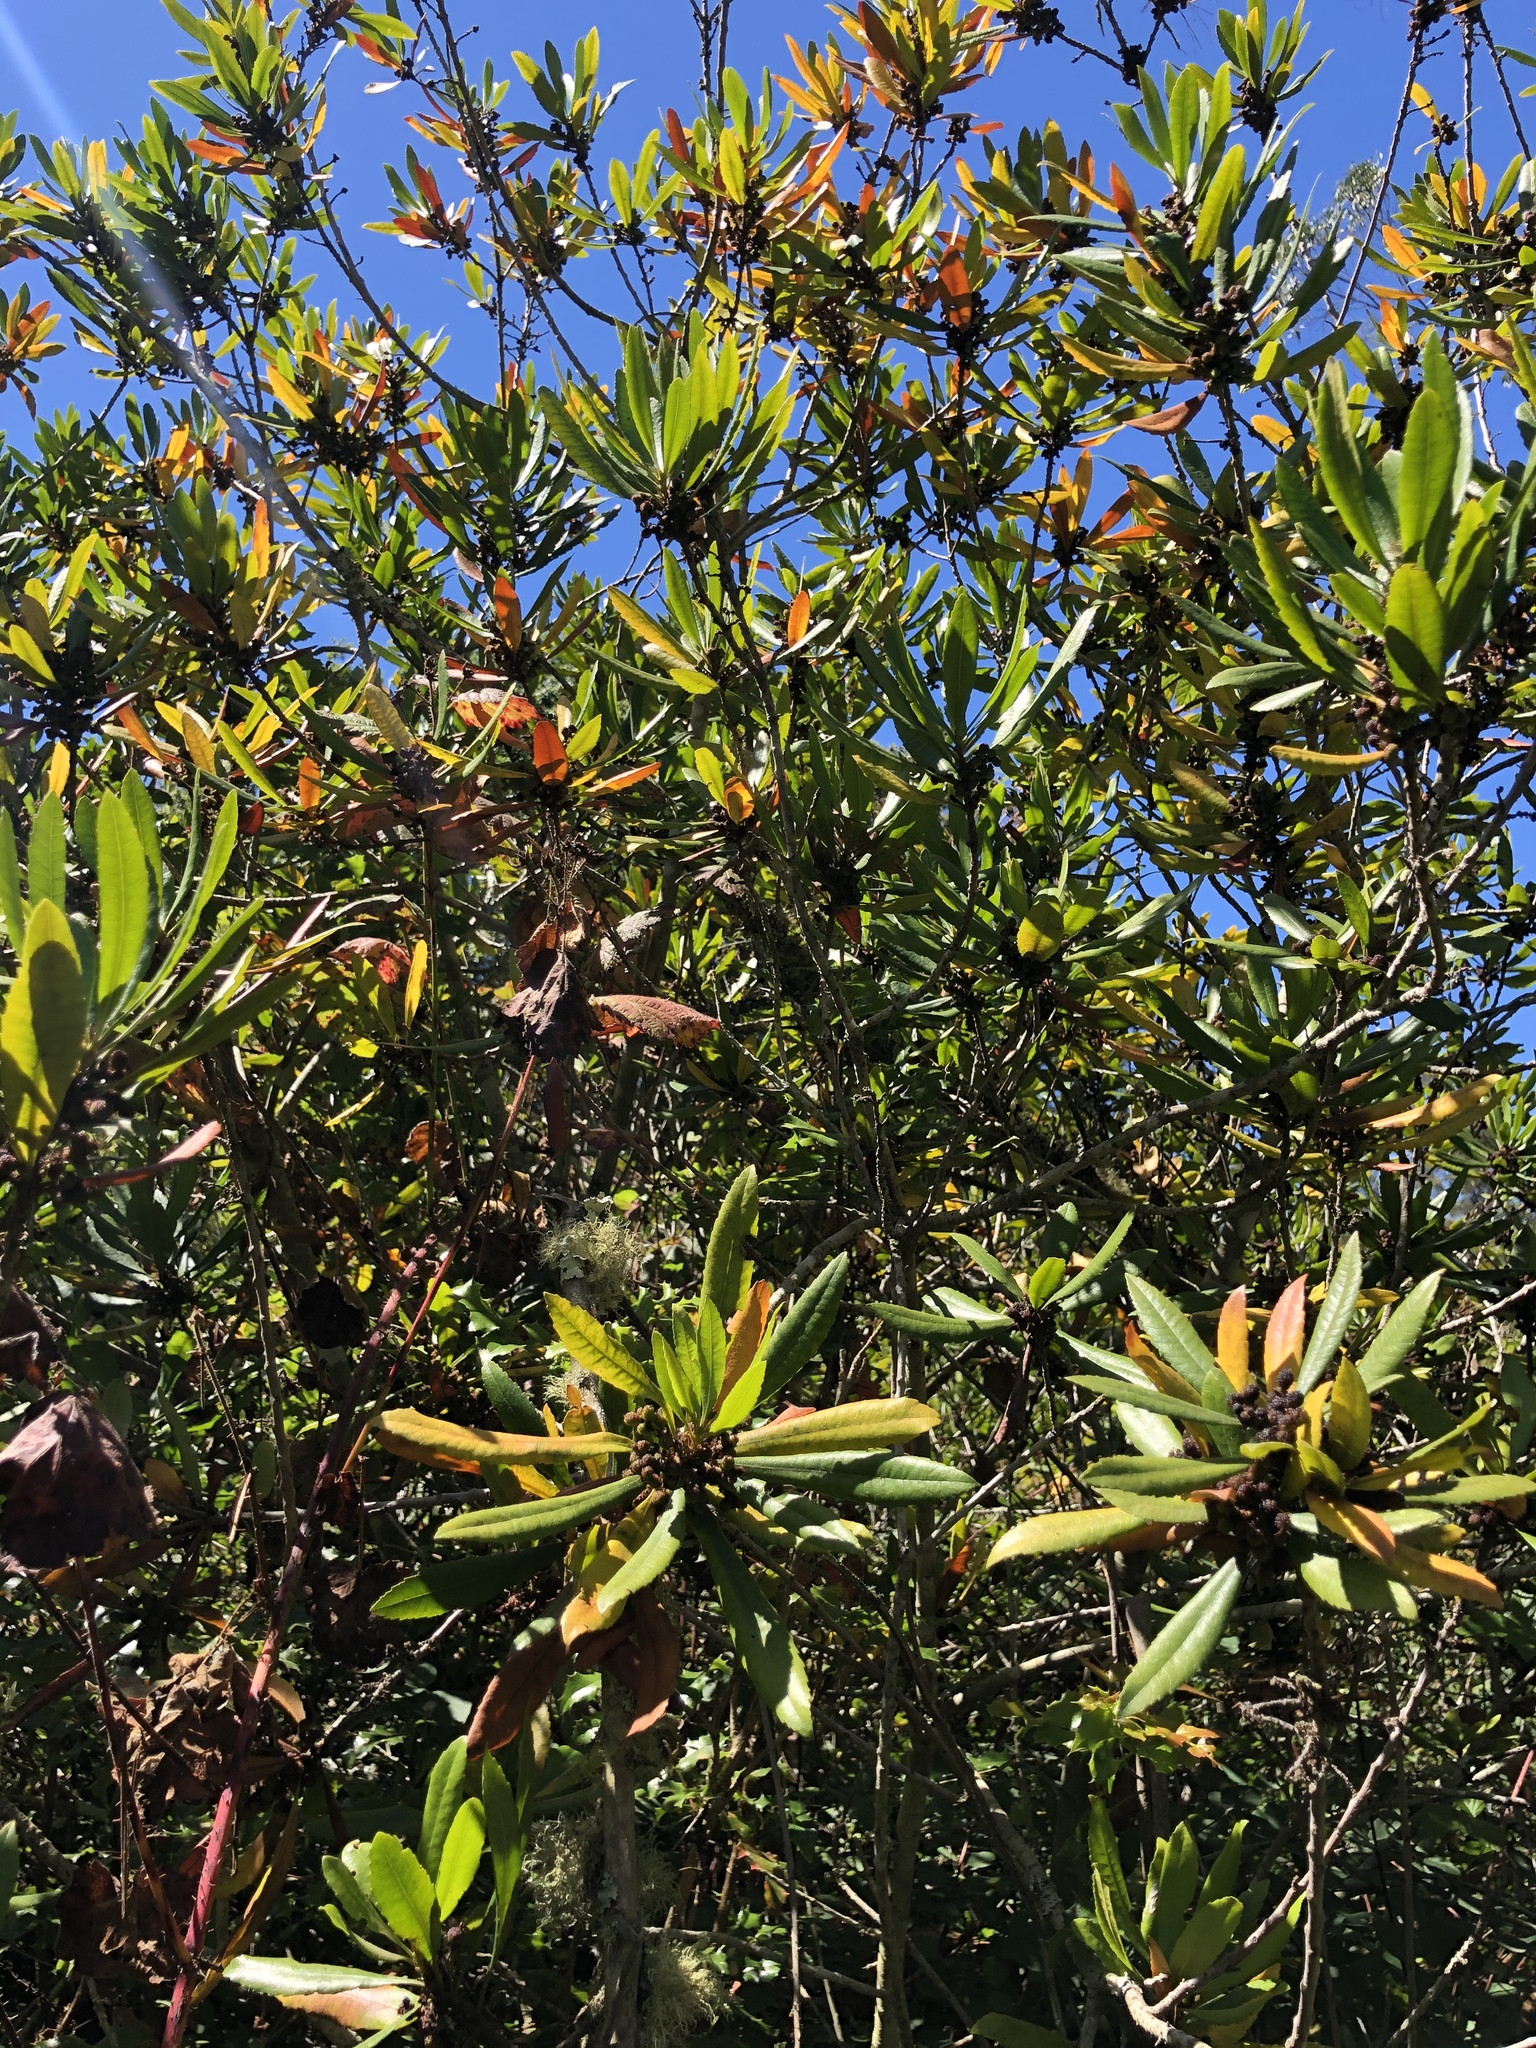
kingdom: Plantae
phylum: Tracheophyta
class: Magnoliopsida
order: Fagales
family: Myricaceae
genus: Morella
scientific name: Morella californica
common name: California wax-myrtle
